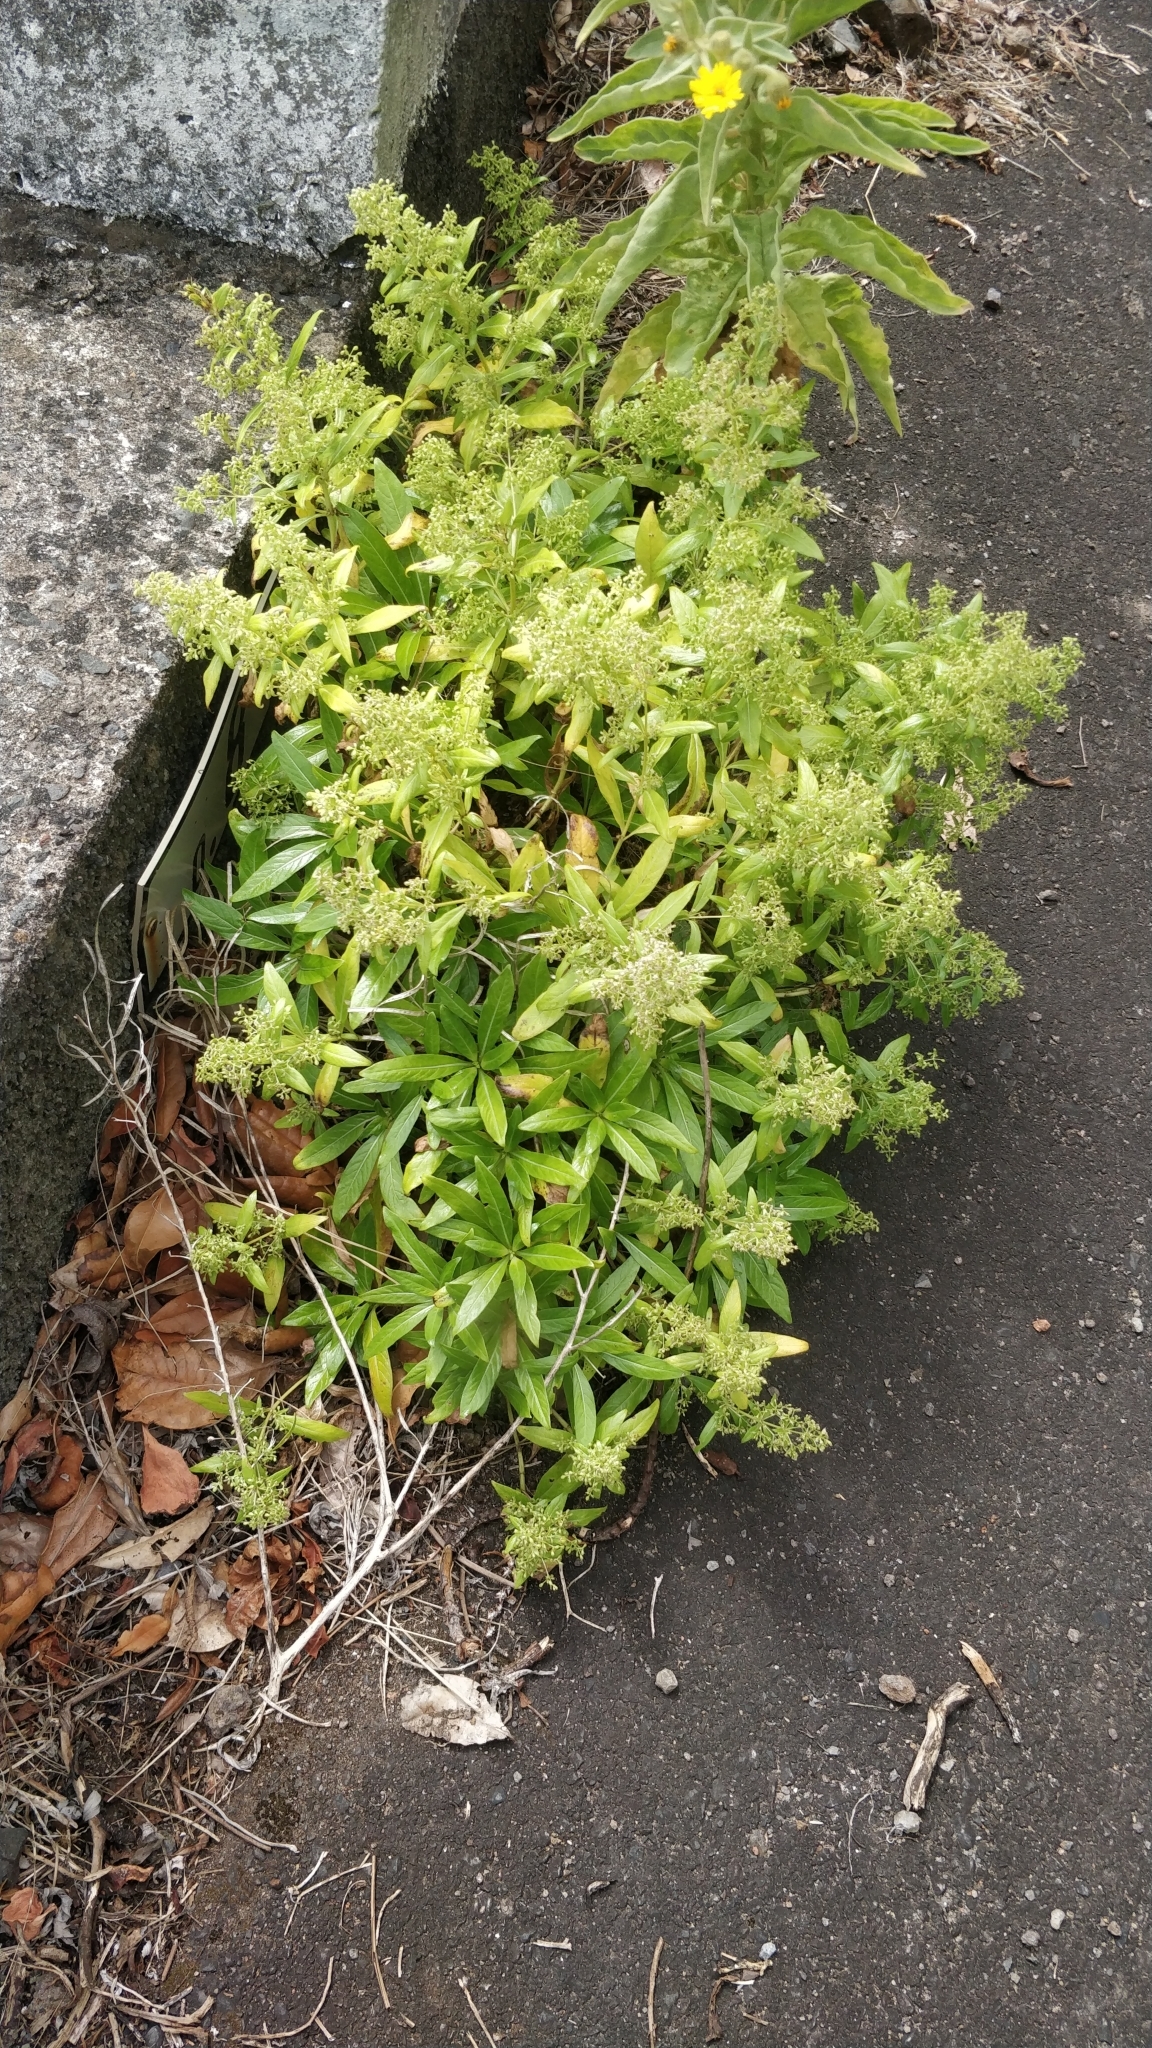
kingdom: Plantae
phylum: Tracheophyta
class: Magnoliopsida
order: Gentianales
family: Rubiaceae
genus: Phyllis
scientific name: Phyllis nobla
